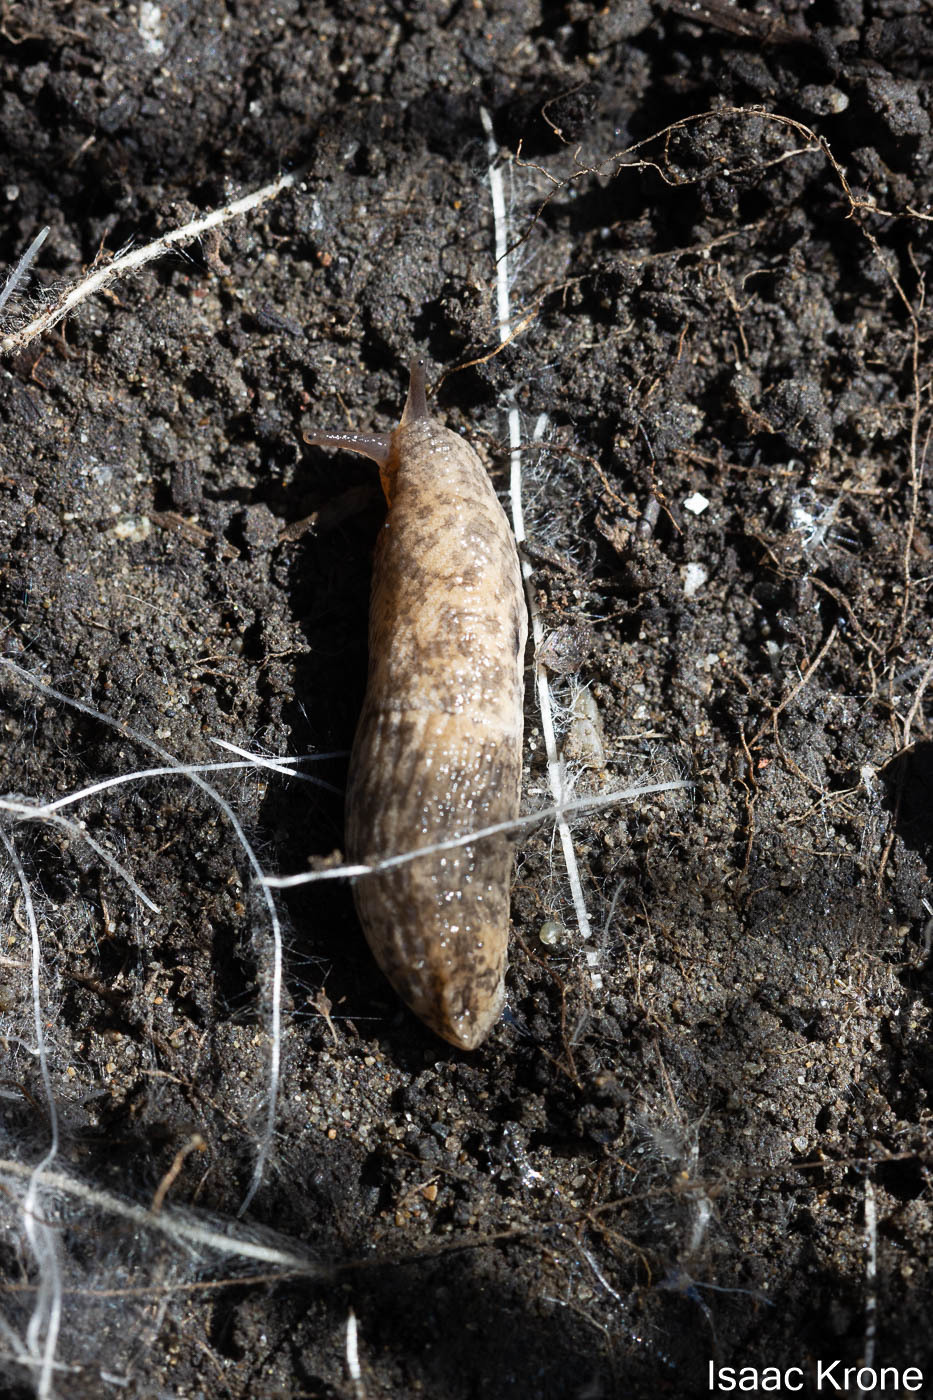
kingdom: Animalia
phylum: Mollusca
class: Gastropoda
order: Stylommatophora
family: Agriolimacidae
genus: Deroceras
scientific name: Deroceras reticulatum
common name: Gray field slug
